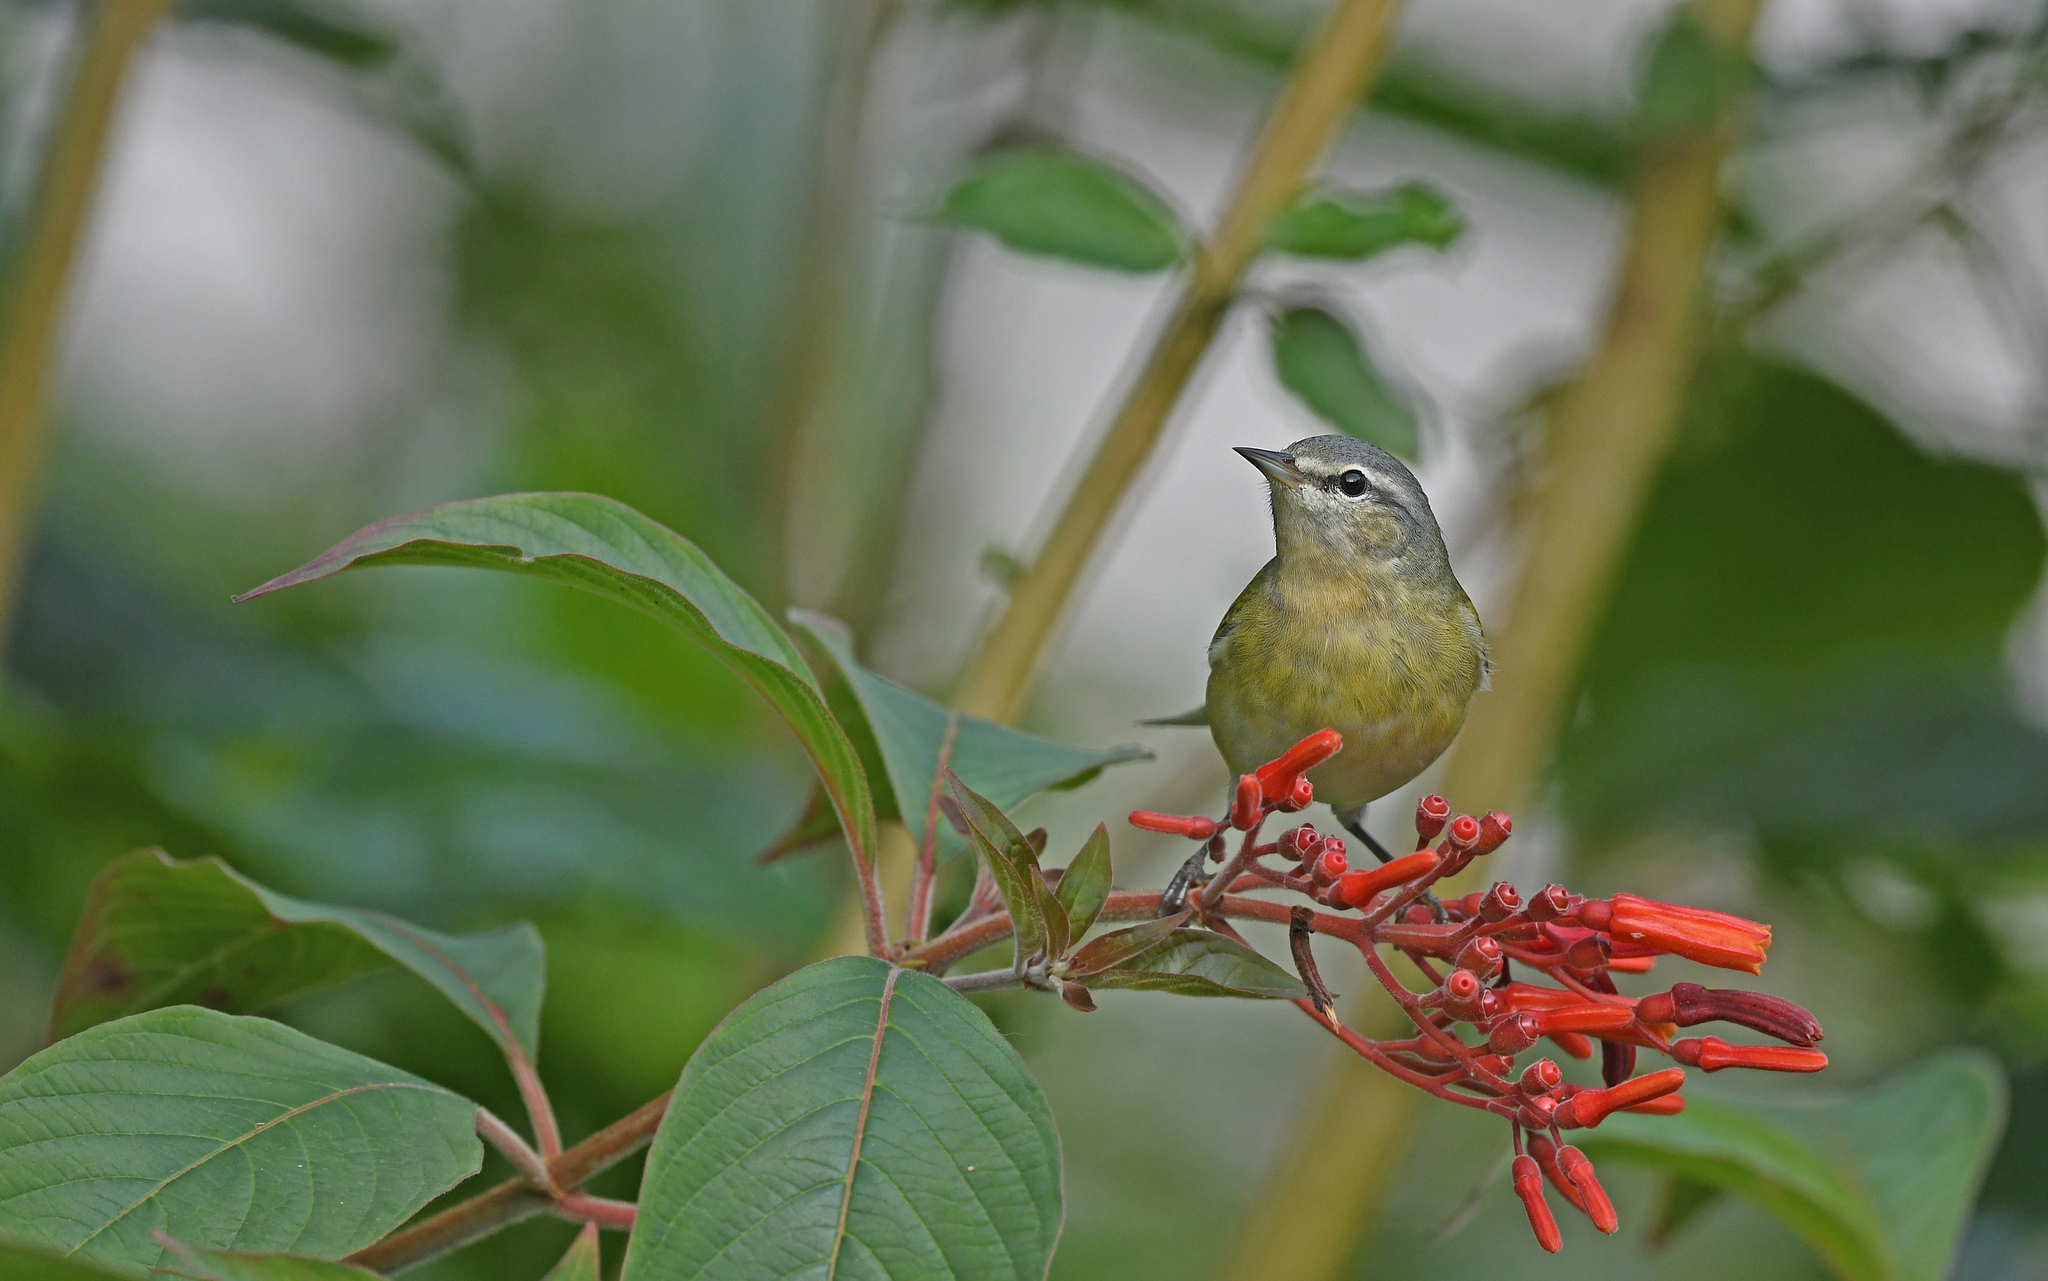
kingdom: Animalia
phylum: Chordata
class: Aves
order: Passeriformes
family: Parulidae
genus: Leiothlypis
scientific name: Leiothlypis peregrina
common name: Tennessee warbler
